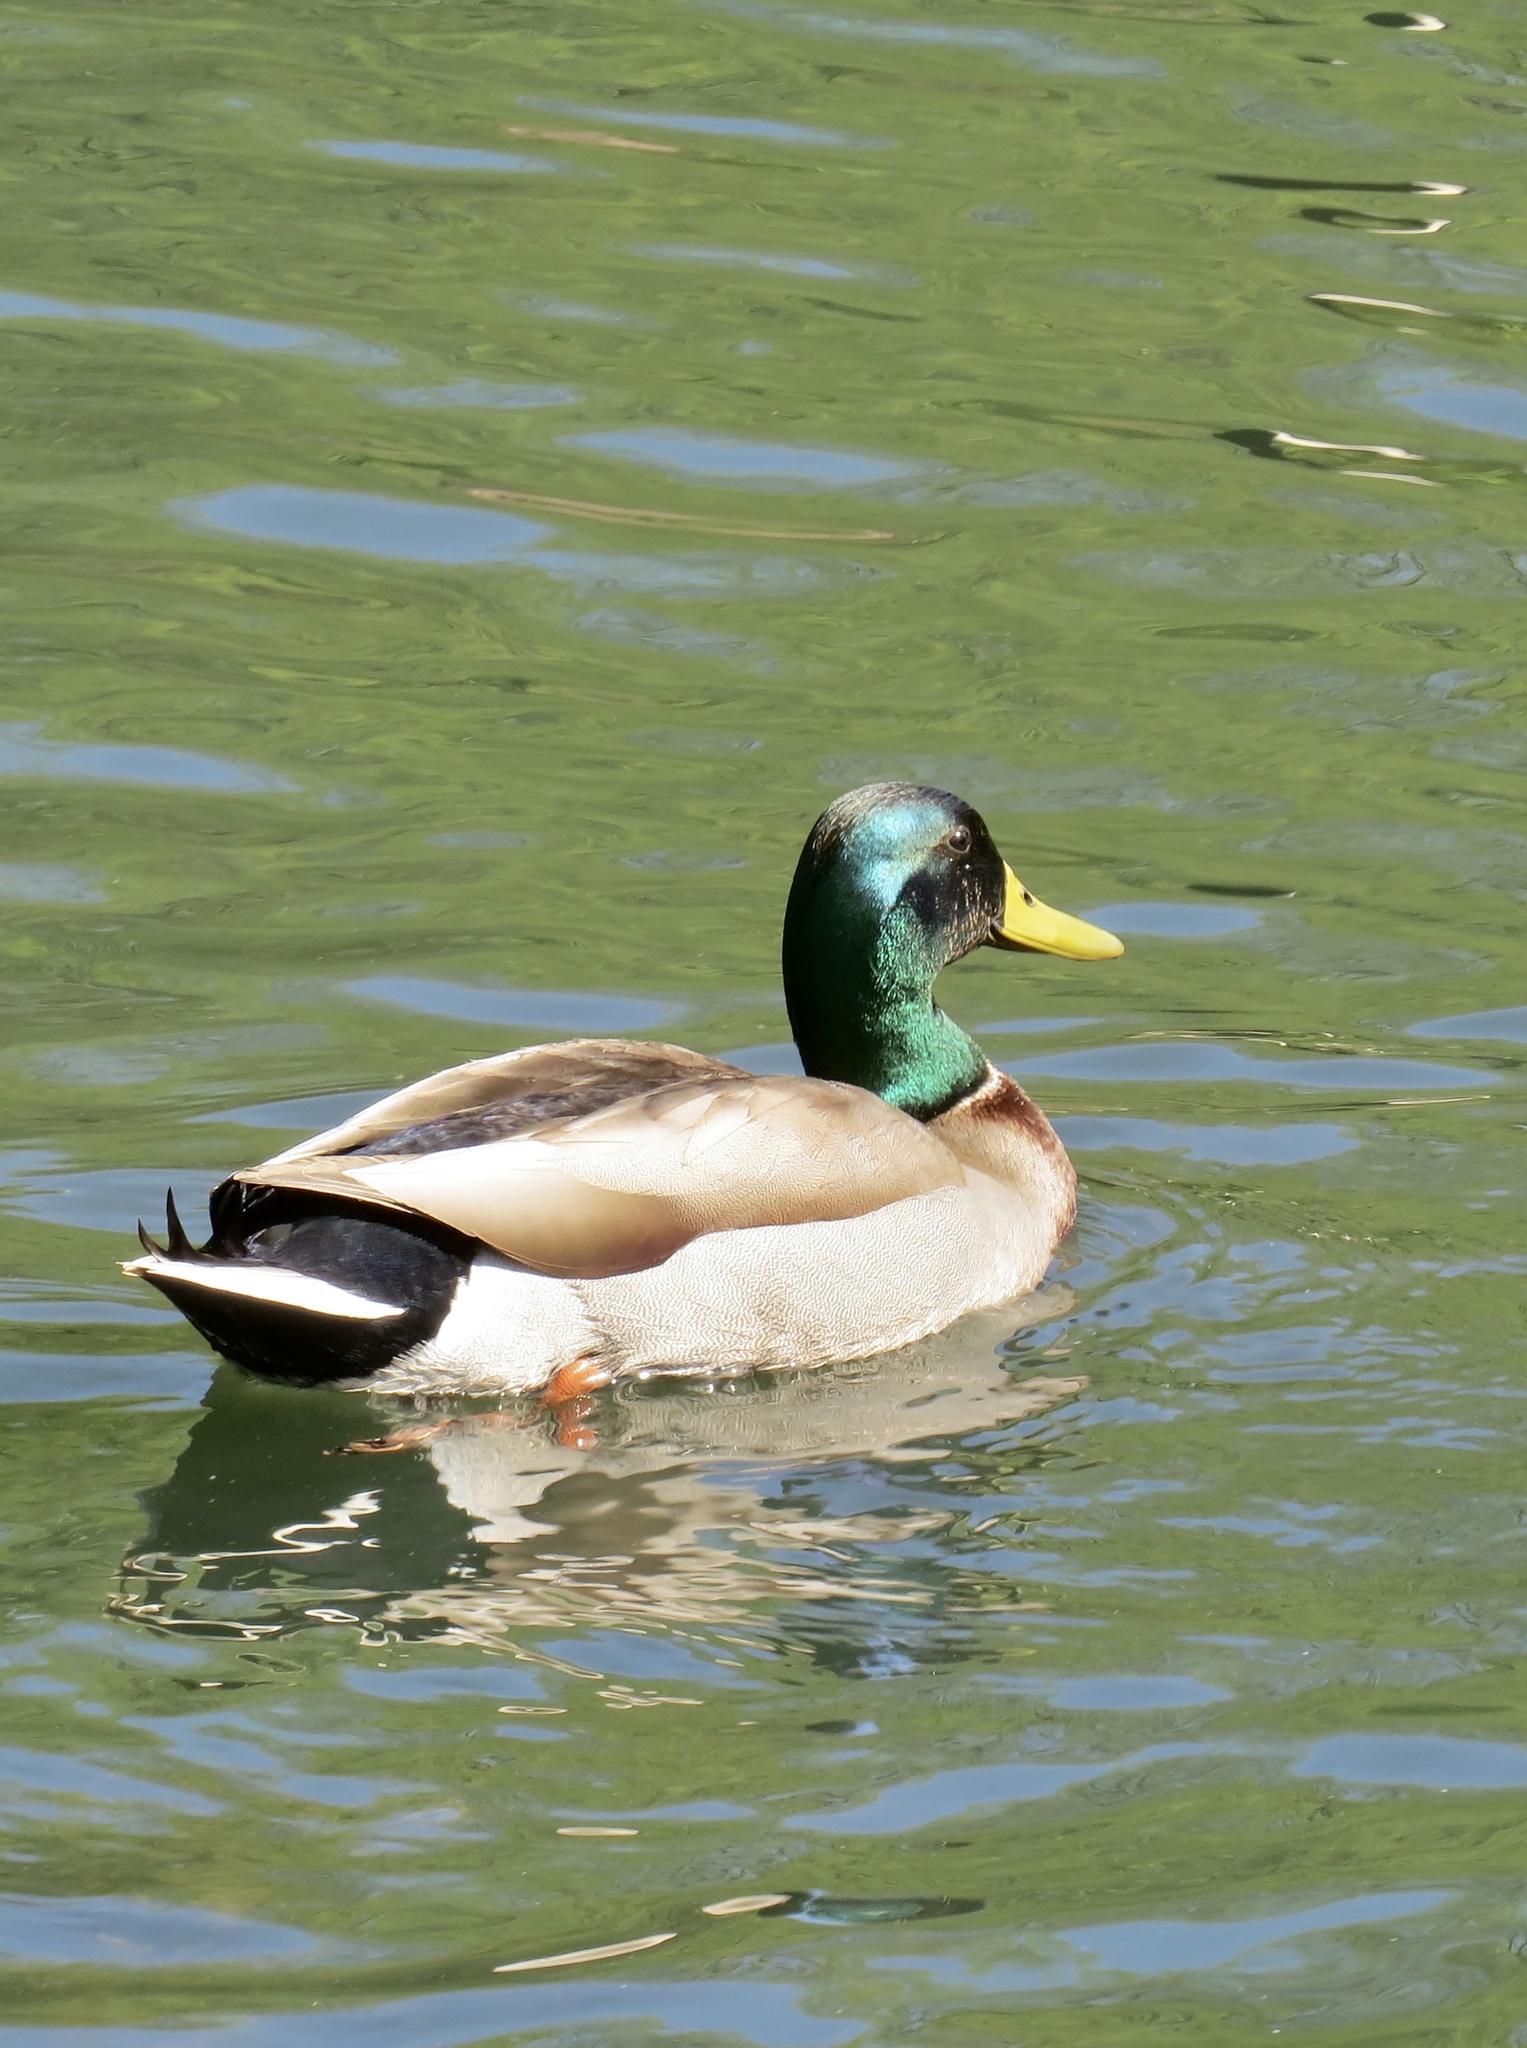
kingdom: Animalia
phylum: Chordata
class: Aves
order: Anseriformes
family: Anatidae
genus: Anas
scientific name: Anas platyrhynchos
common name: Mallard
